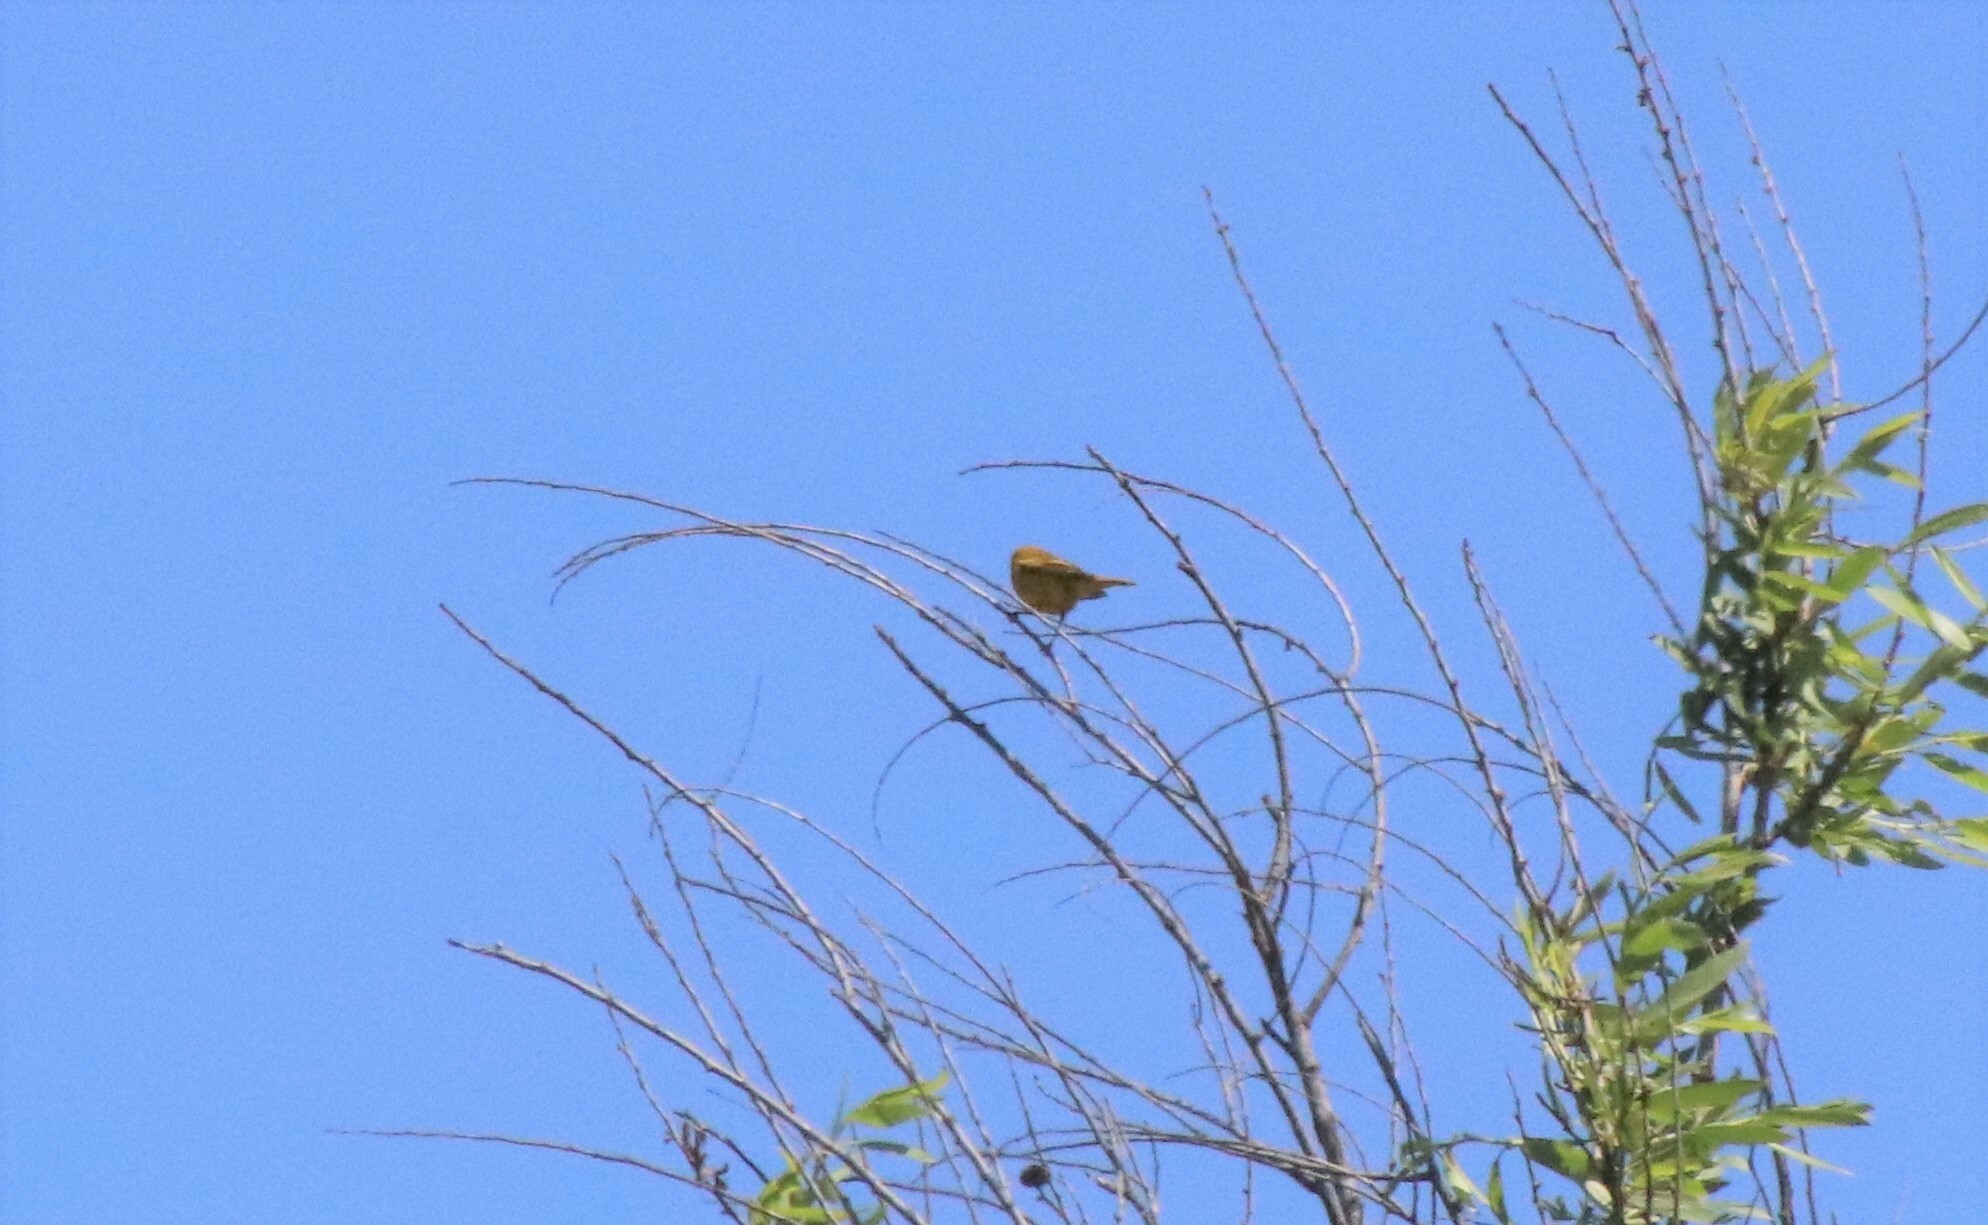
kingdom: Animalia
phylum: Chordata
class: Aves
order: Passeriformes
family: Parulidae
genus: Setophaga
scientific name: Setophaga petechia
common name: Yellow warbler
